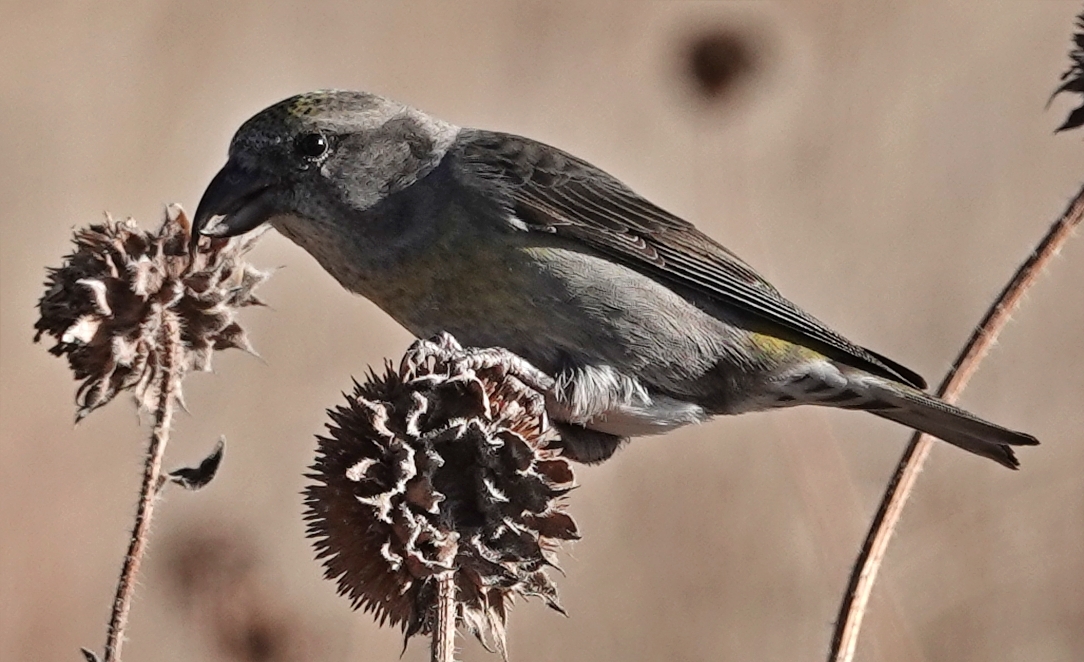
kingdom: Animalia
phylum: Chordata
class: Aves
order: Passeriformes
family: Fringillidae
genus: Loxia
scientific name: Loxia curvirostra
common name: Red crossbill
